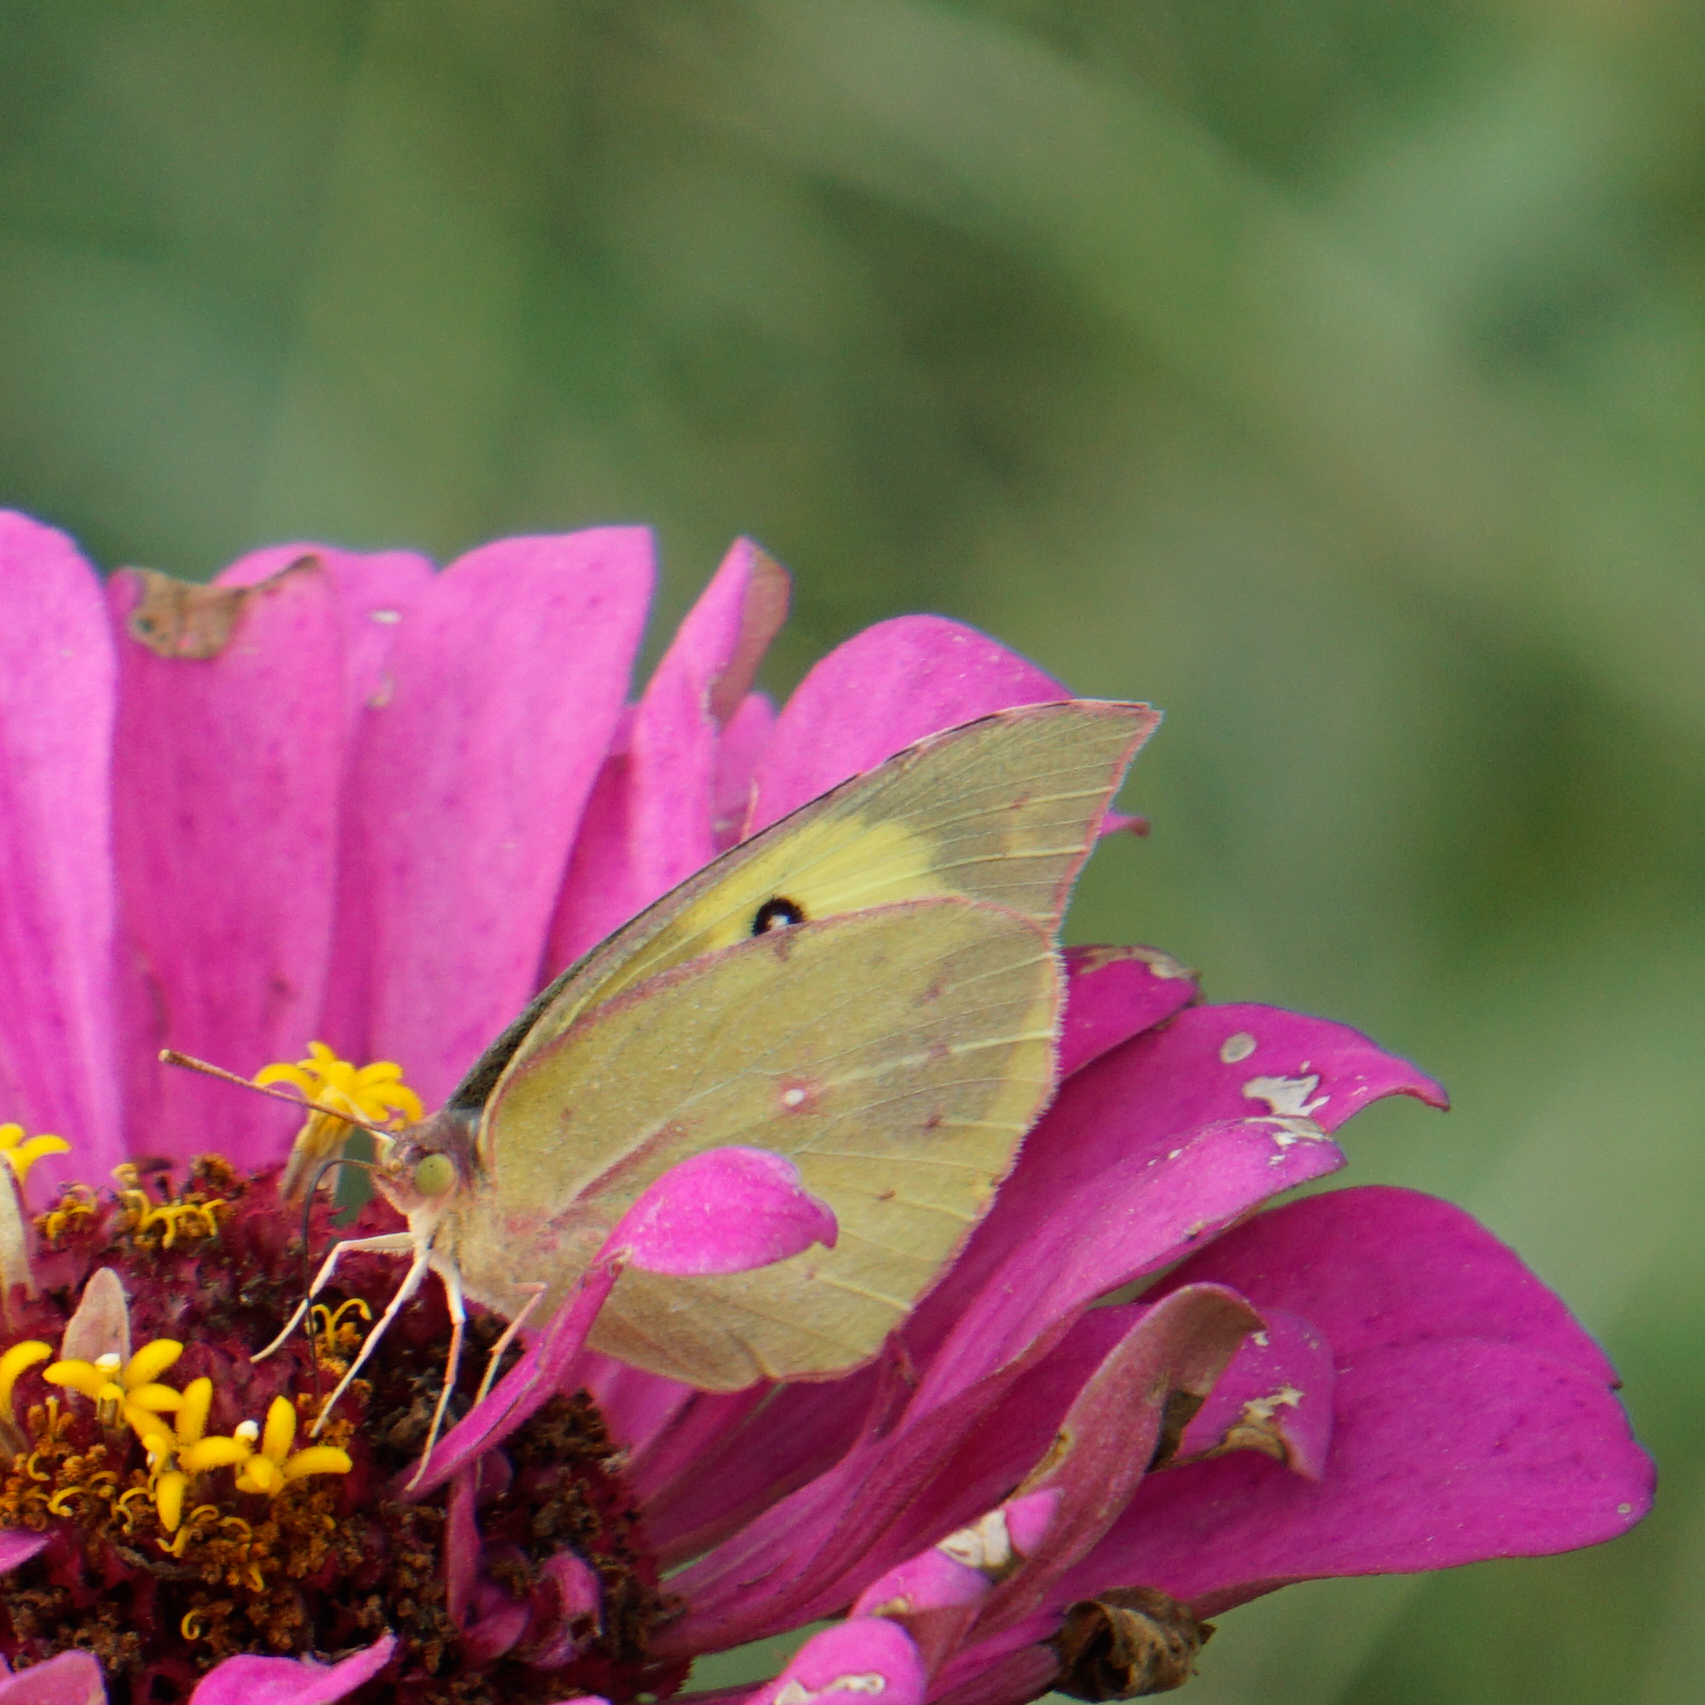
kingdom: Animalia
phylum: Arthropoda
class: Insecta
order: Lepidoptera
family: Pieridae
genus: Zerene
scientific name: Zerene cesonia
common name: Southern dogface
